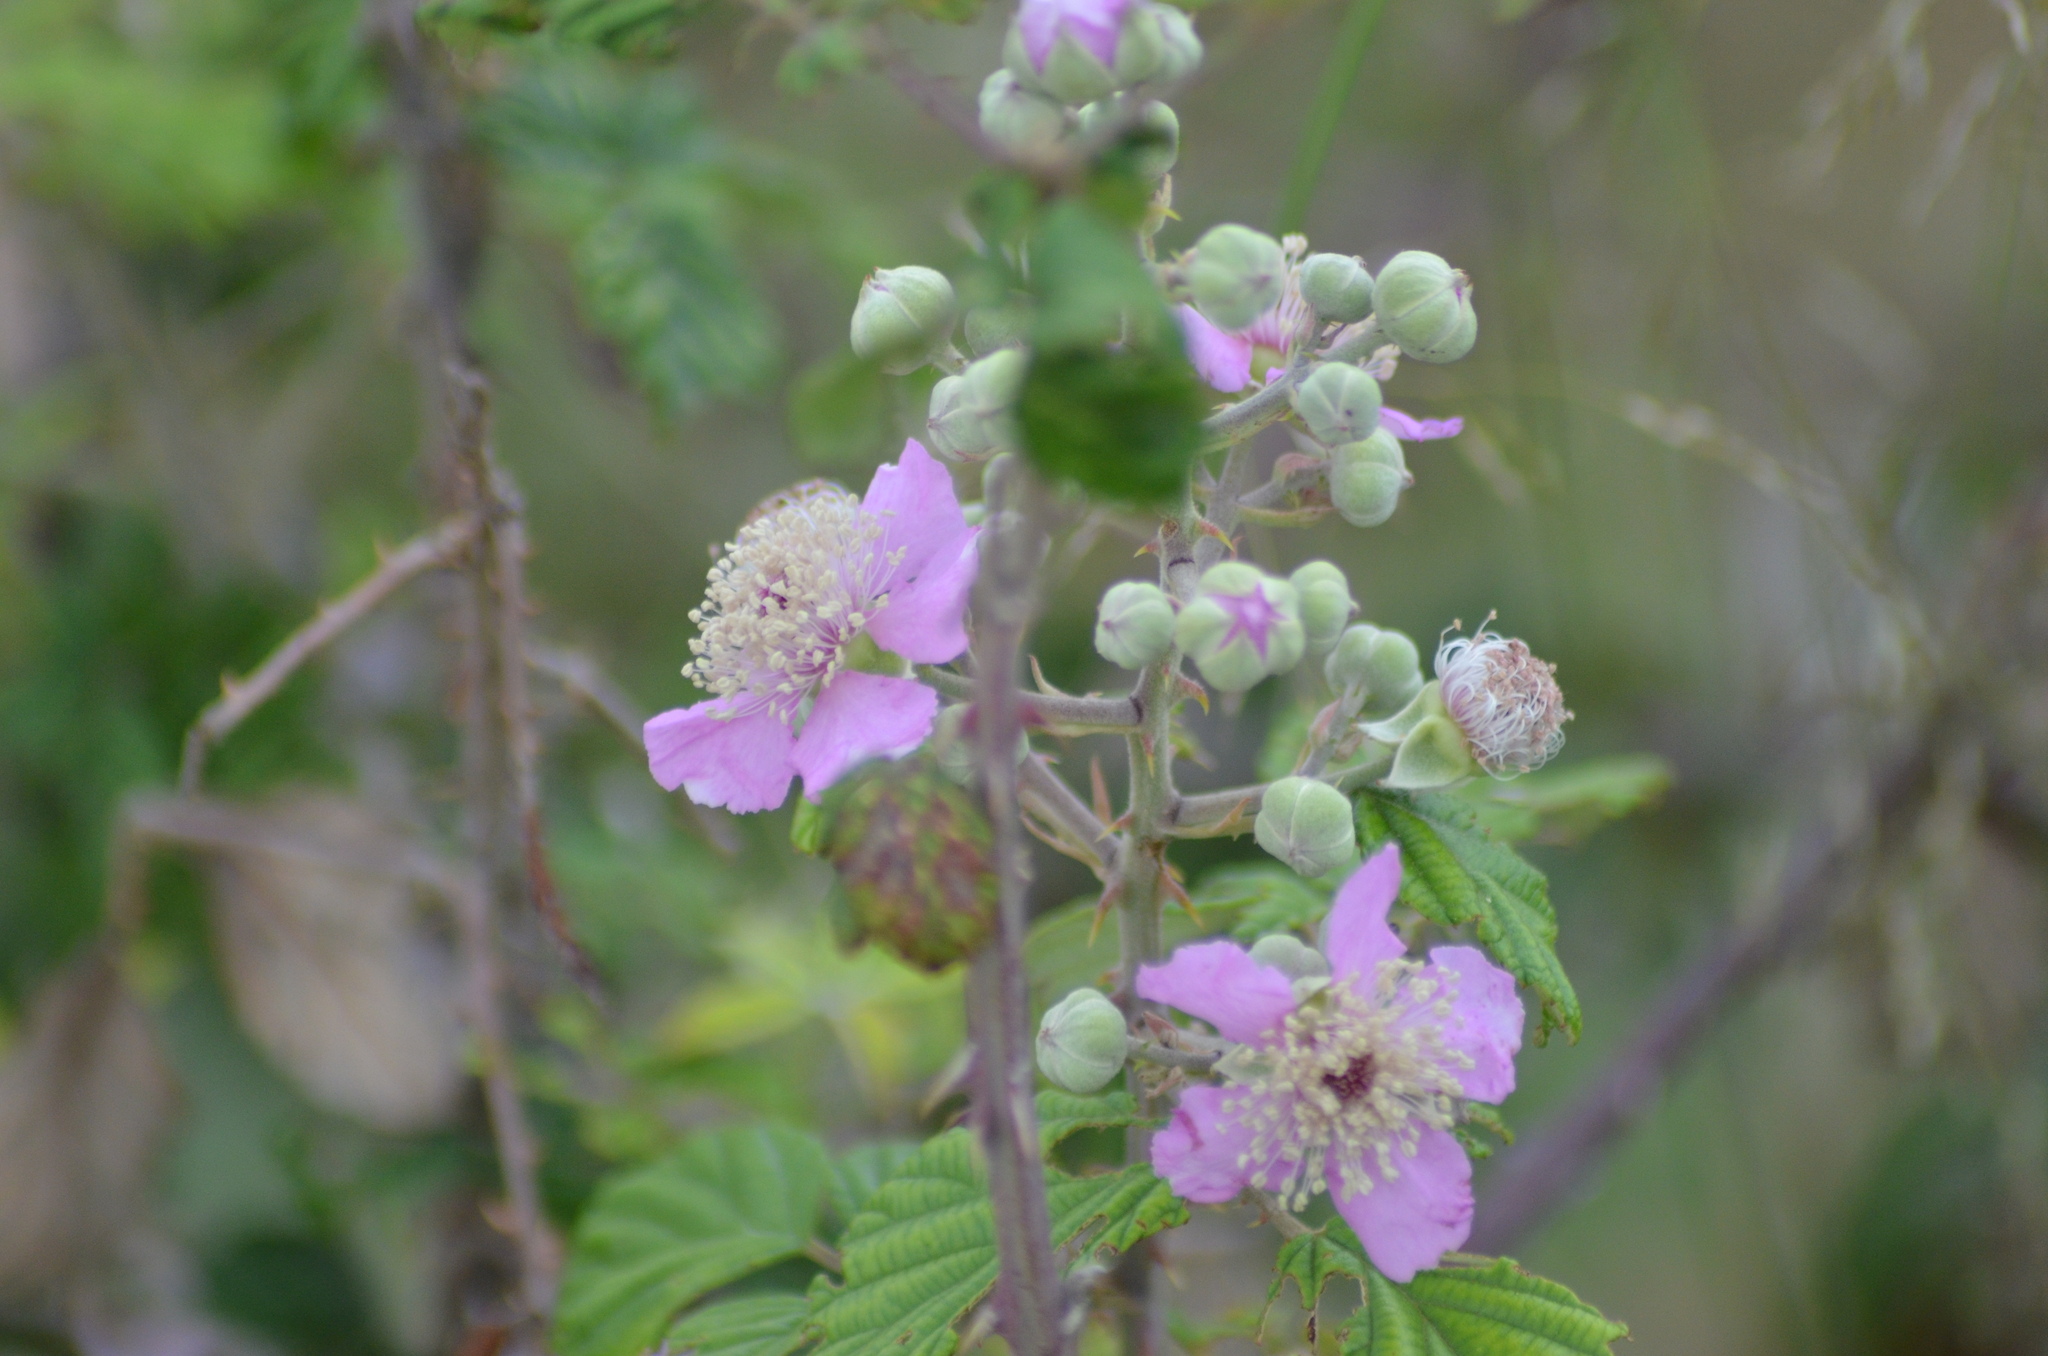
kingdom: Plantae
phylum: Tracheophyta
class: Magnoliopsida
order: Rosales
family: Rosaceae
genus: Rubus
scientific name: Rubus ulmifolius
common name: Elmleaf blackberry
